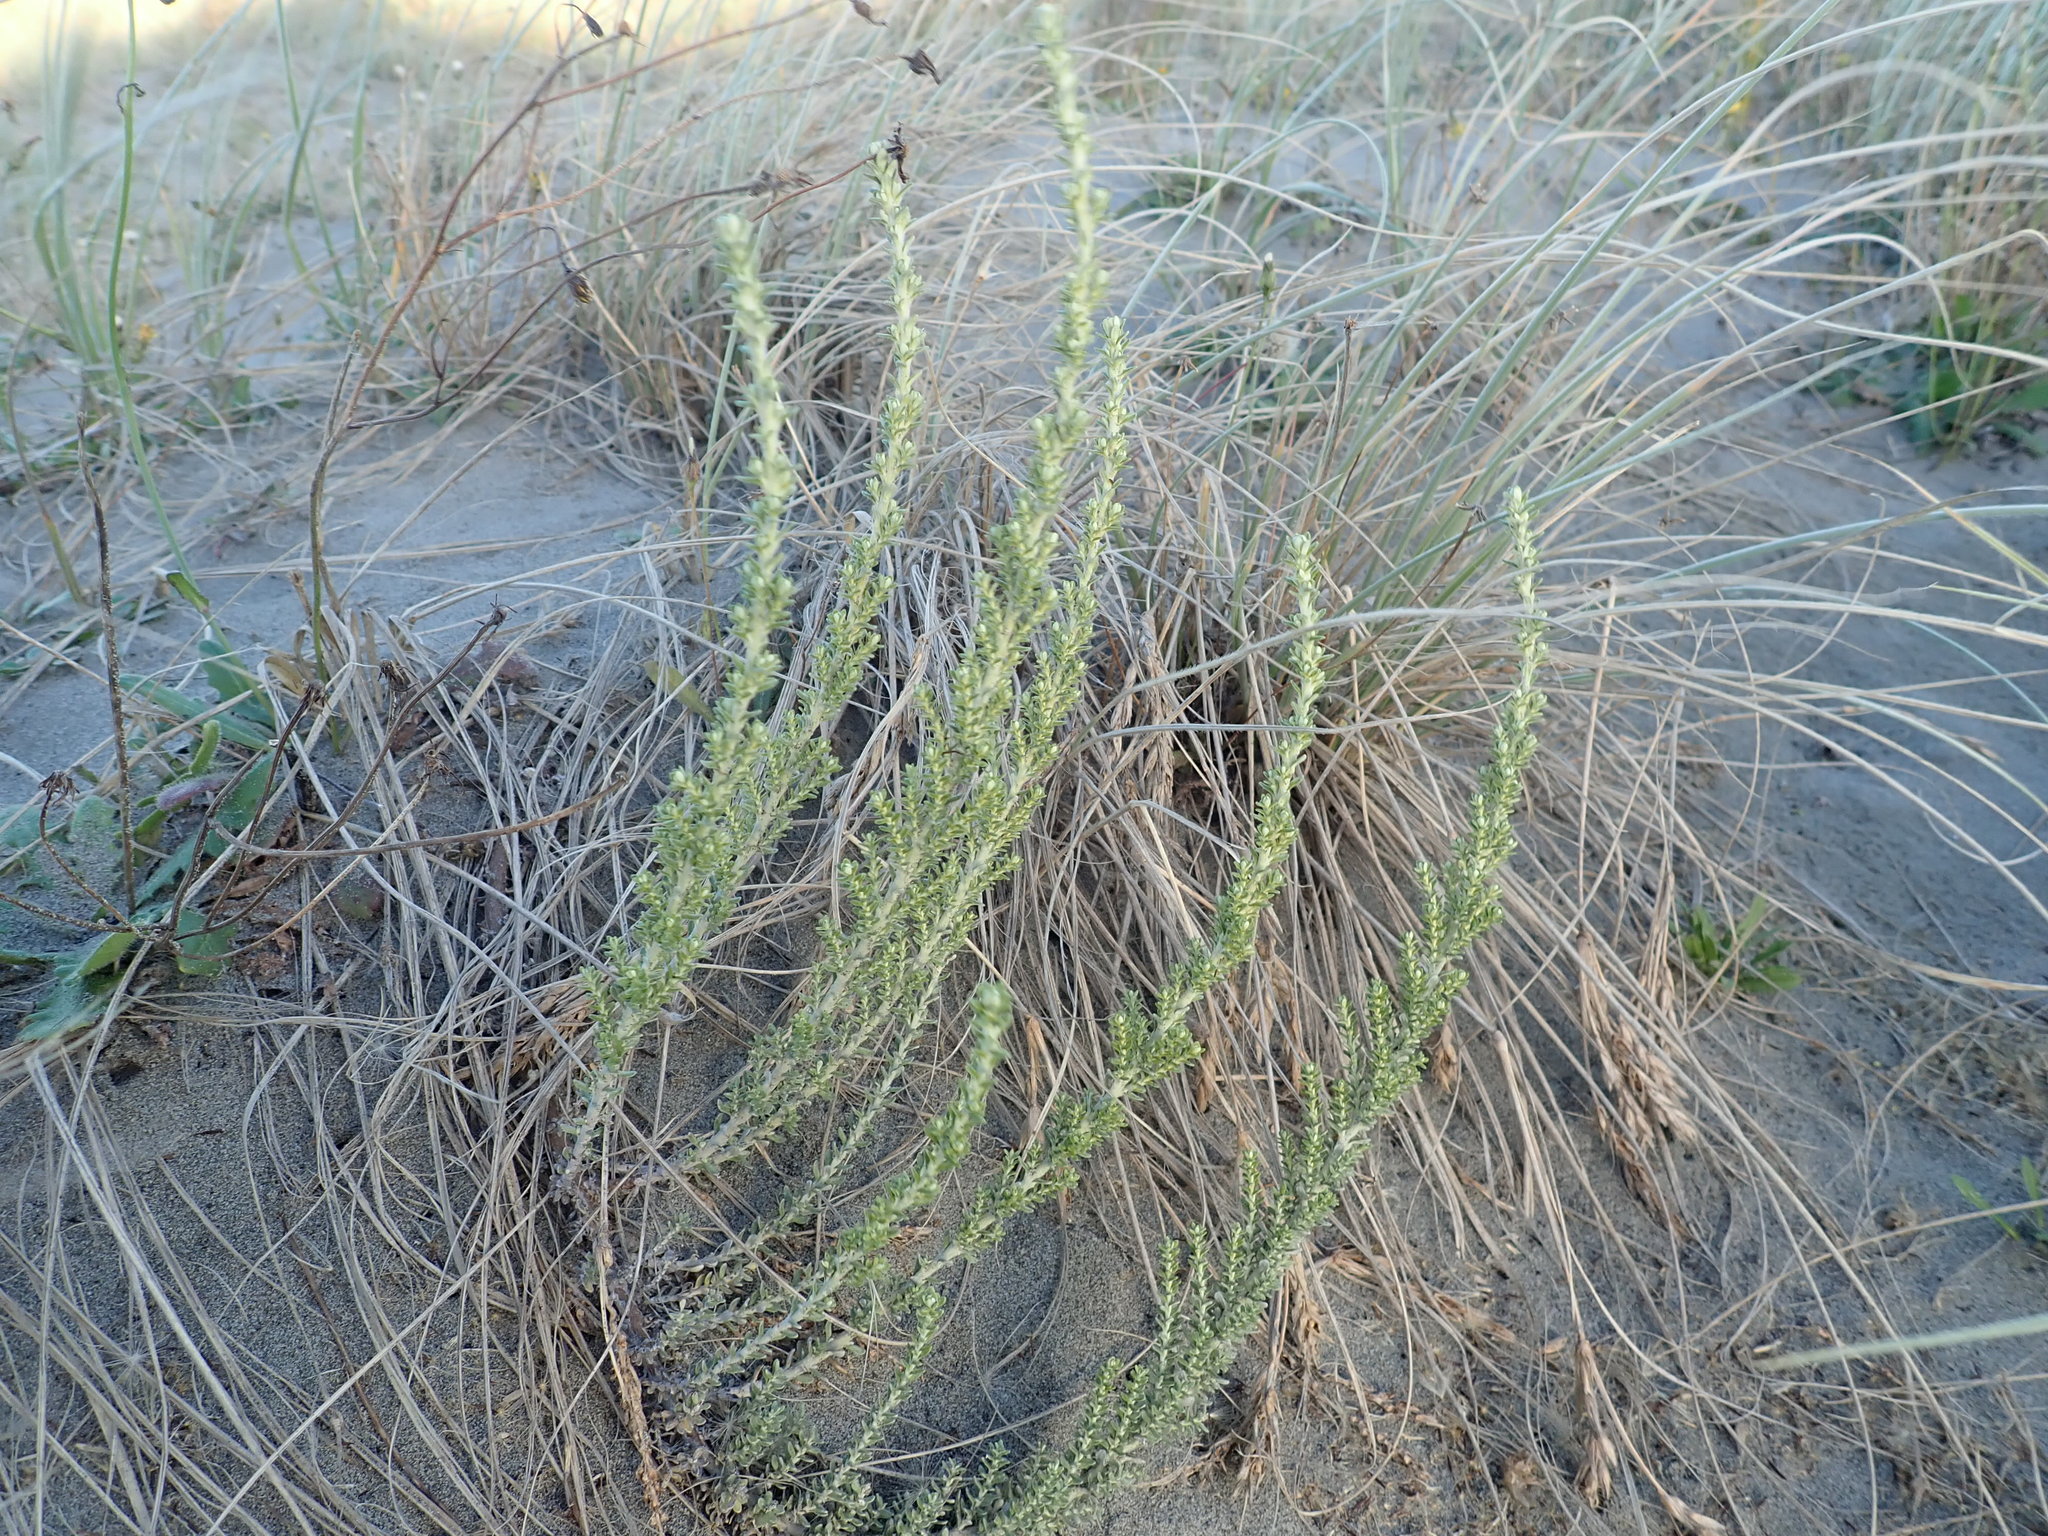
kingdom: Plantae
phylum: Tracheophyta
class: Magnoliopsida
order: Asterales
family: Asteraceae
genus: Ozothamnus
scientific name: Ozothamnus leptophyllus
